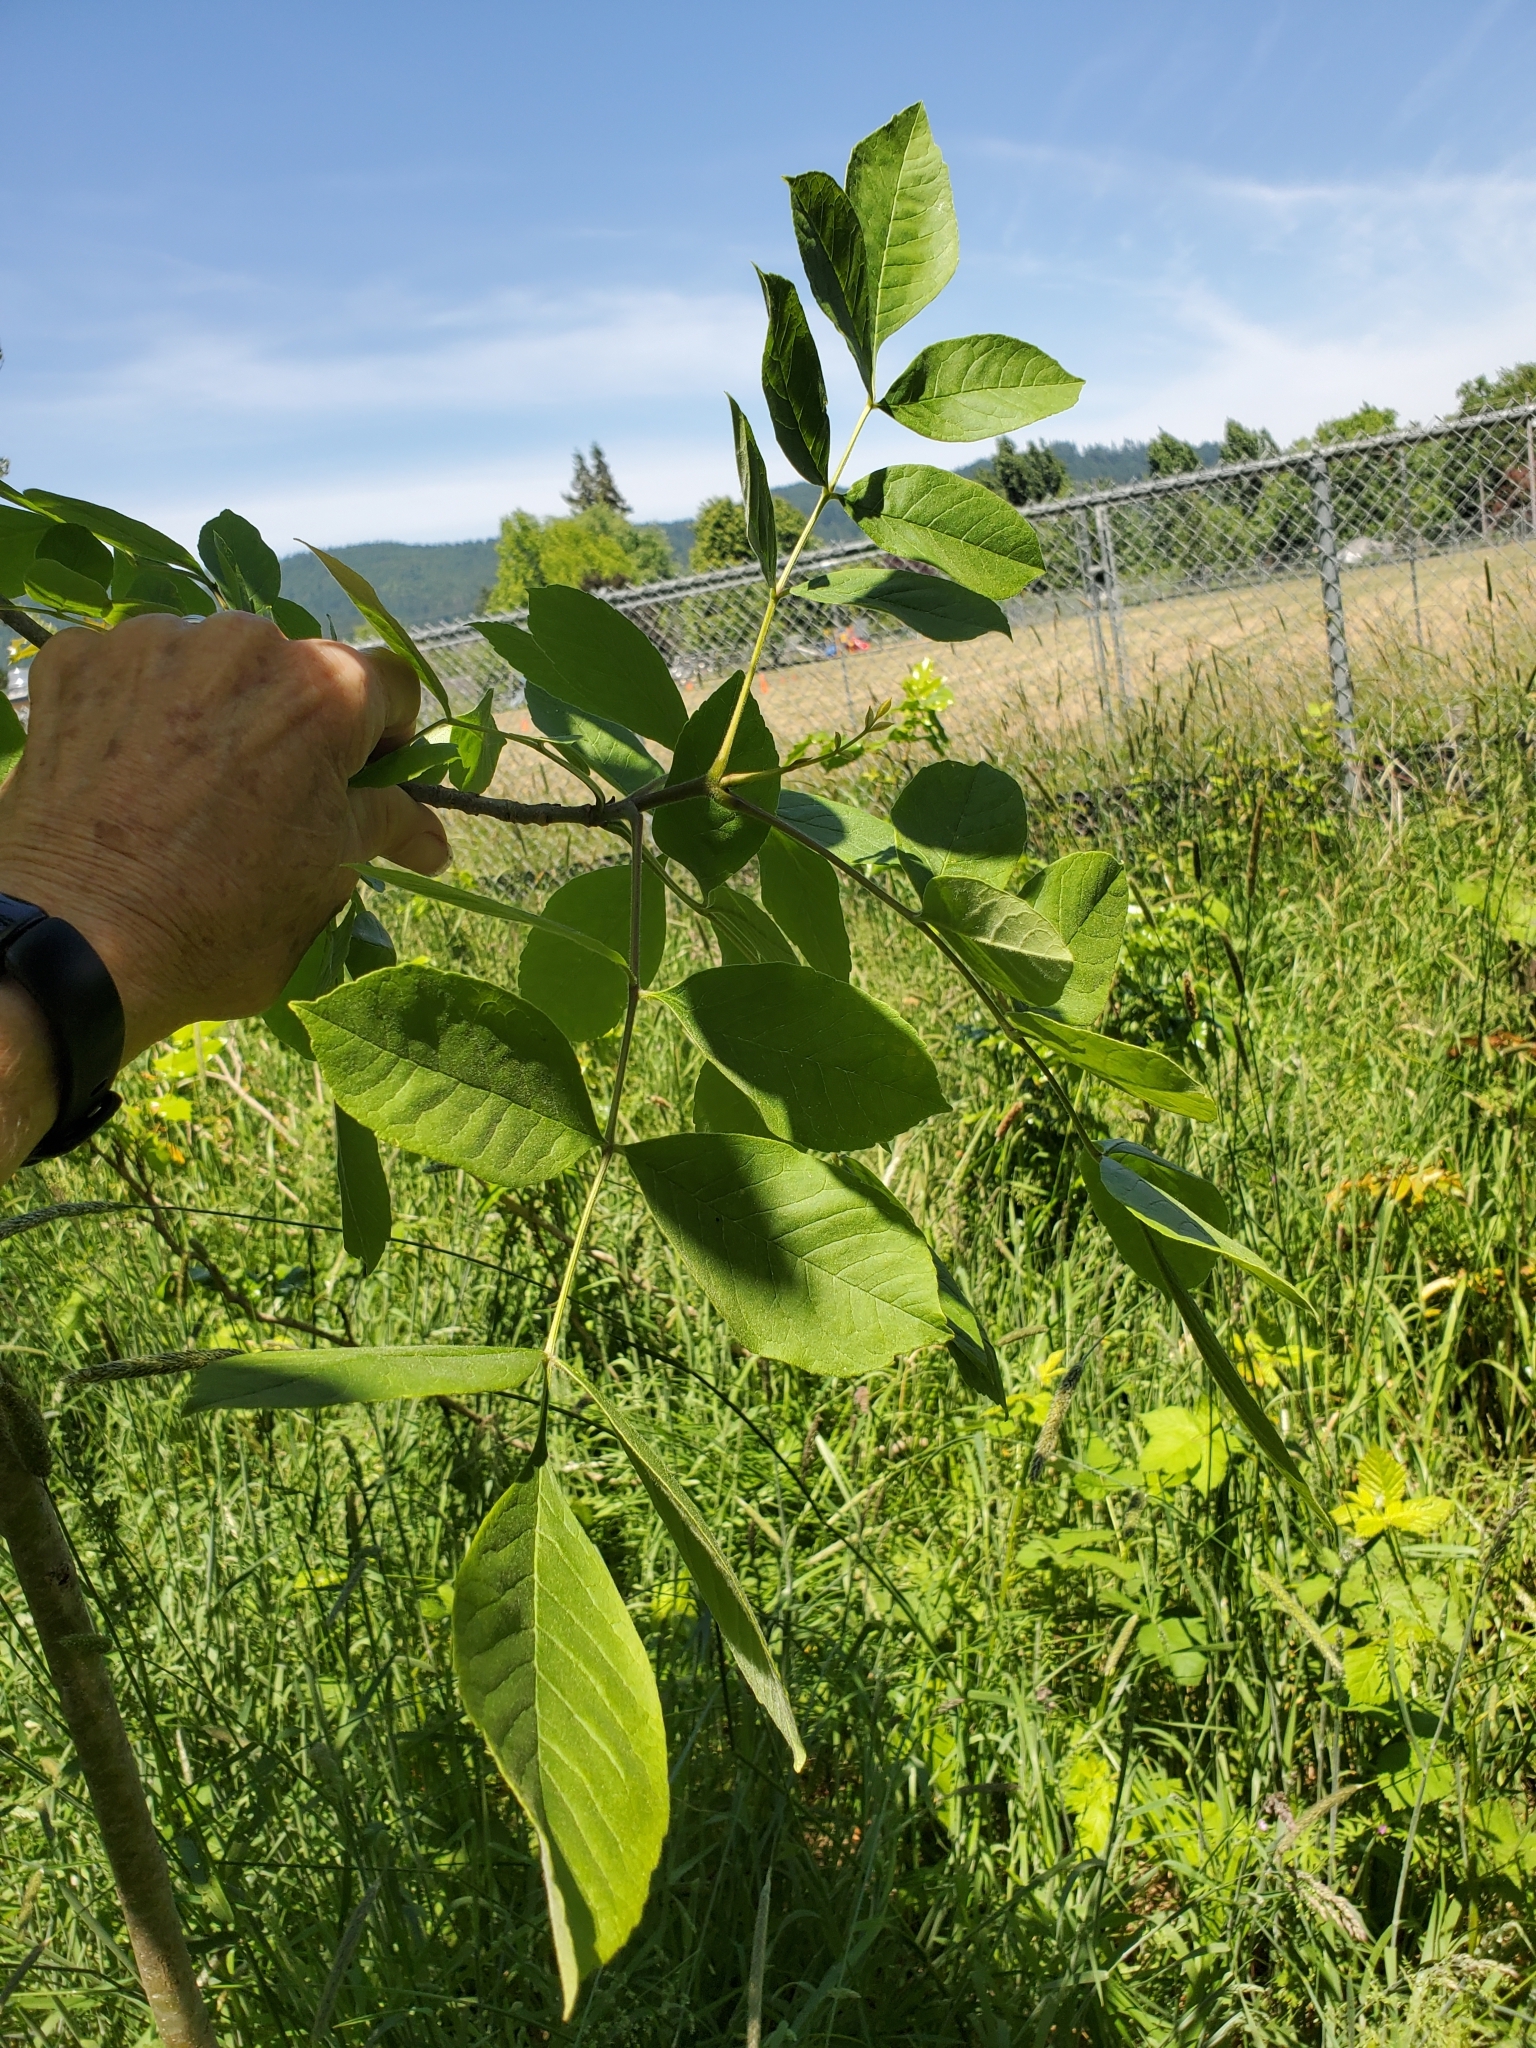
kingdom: Plantae
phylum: Tracheophyta
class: Magnoliopsida
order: Lamiales
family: Oleaceae
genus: Fraxinus
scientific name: Fraxinus latifolia
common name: Oregon ash
